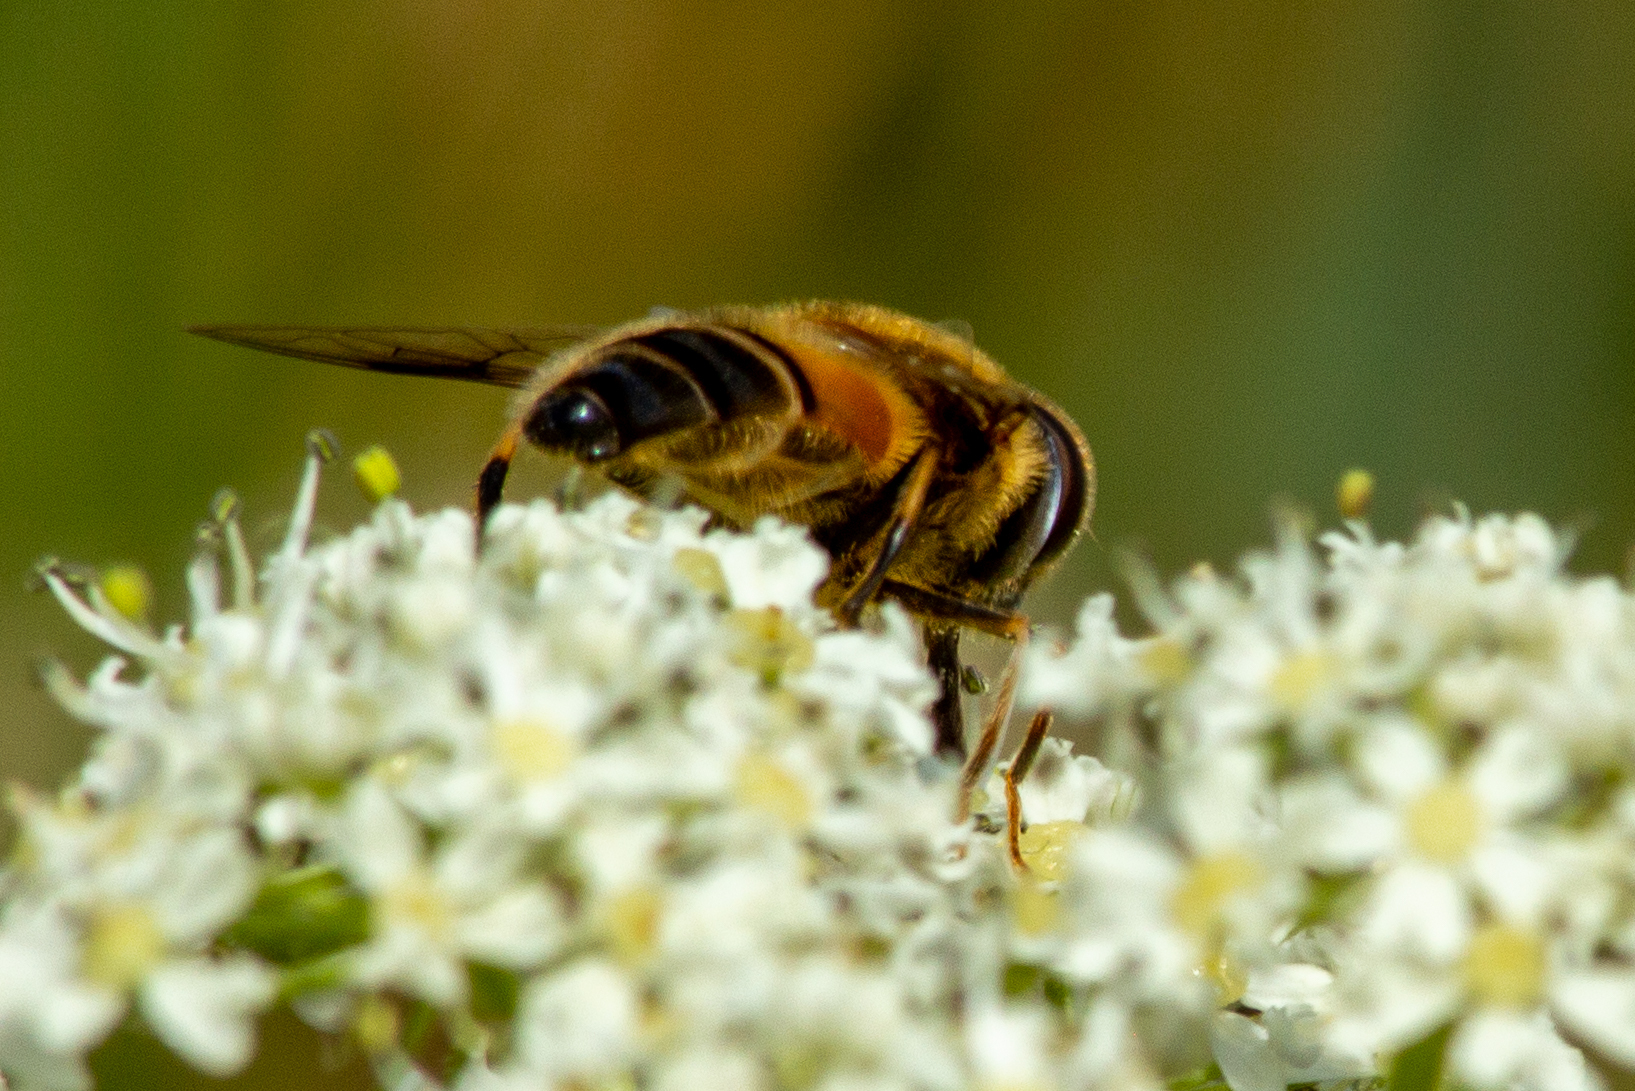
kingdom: Animalia
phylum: Arthropoda
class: Insecta
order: Diptera
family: Syrphidae
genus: Eristalis
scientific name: Eristalis pertinax
